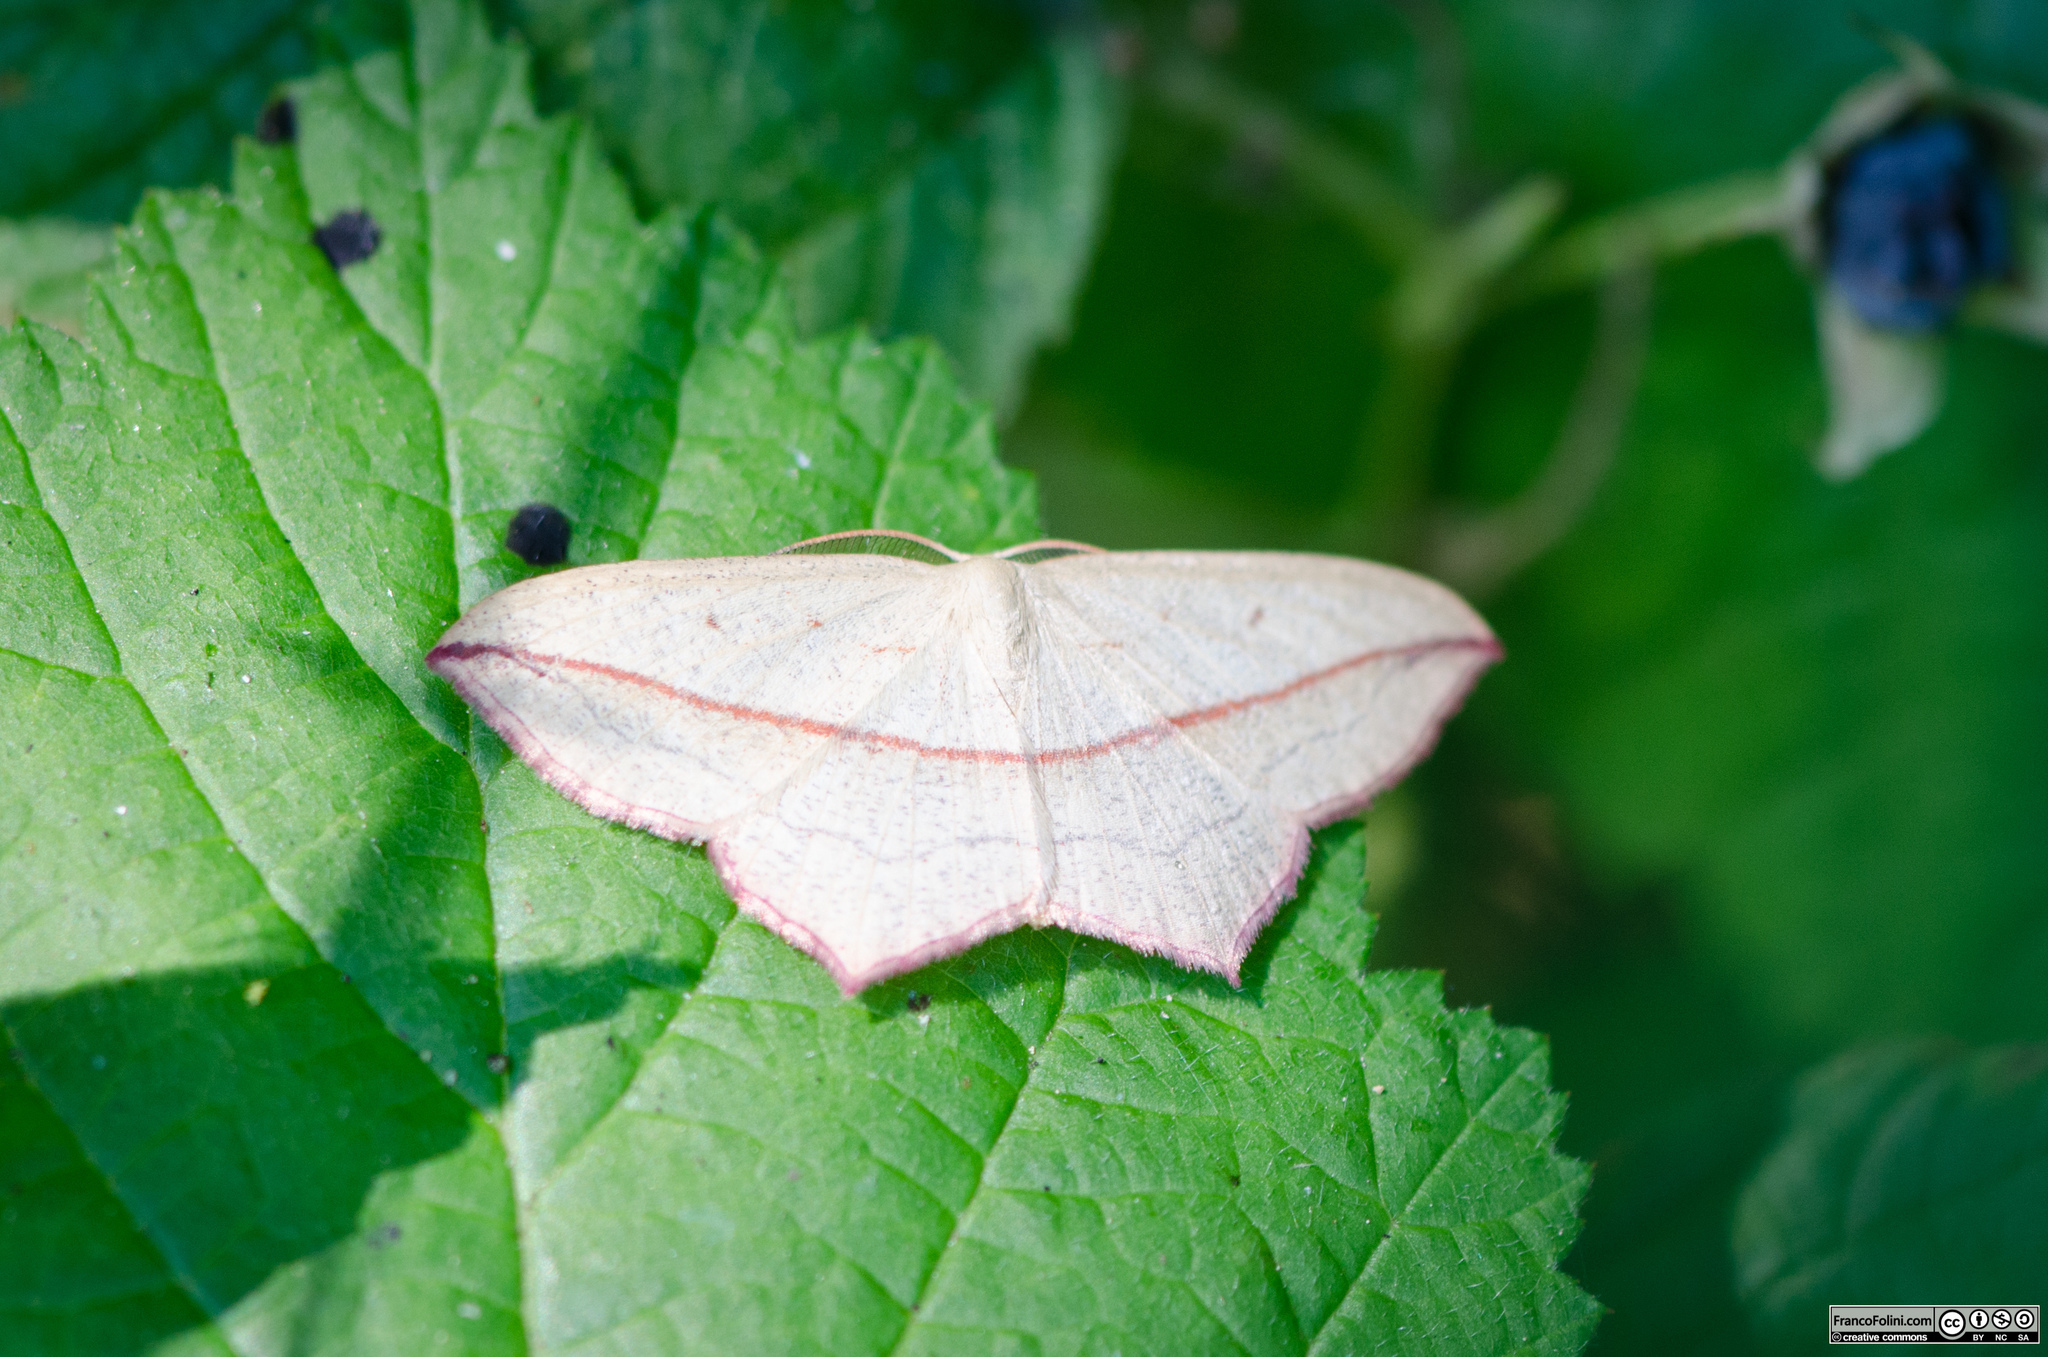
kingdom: Animalia
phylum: Arthropoda
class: Insecta
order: Lepidoptera
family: Geometridae
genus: Timandra
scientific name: Timandra comae
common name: Blood-vein
